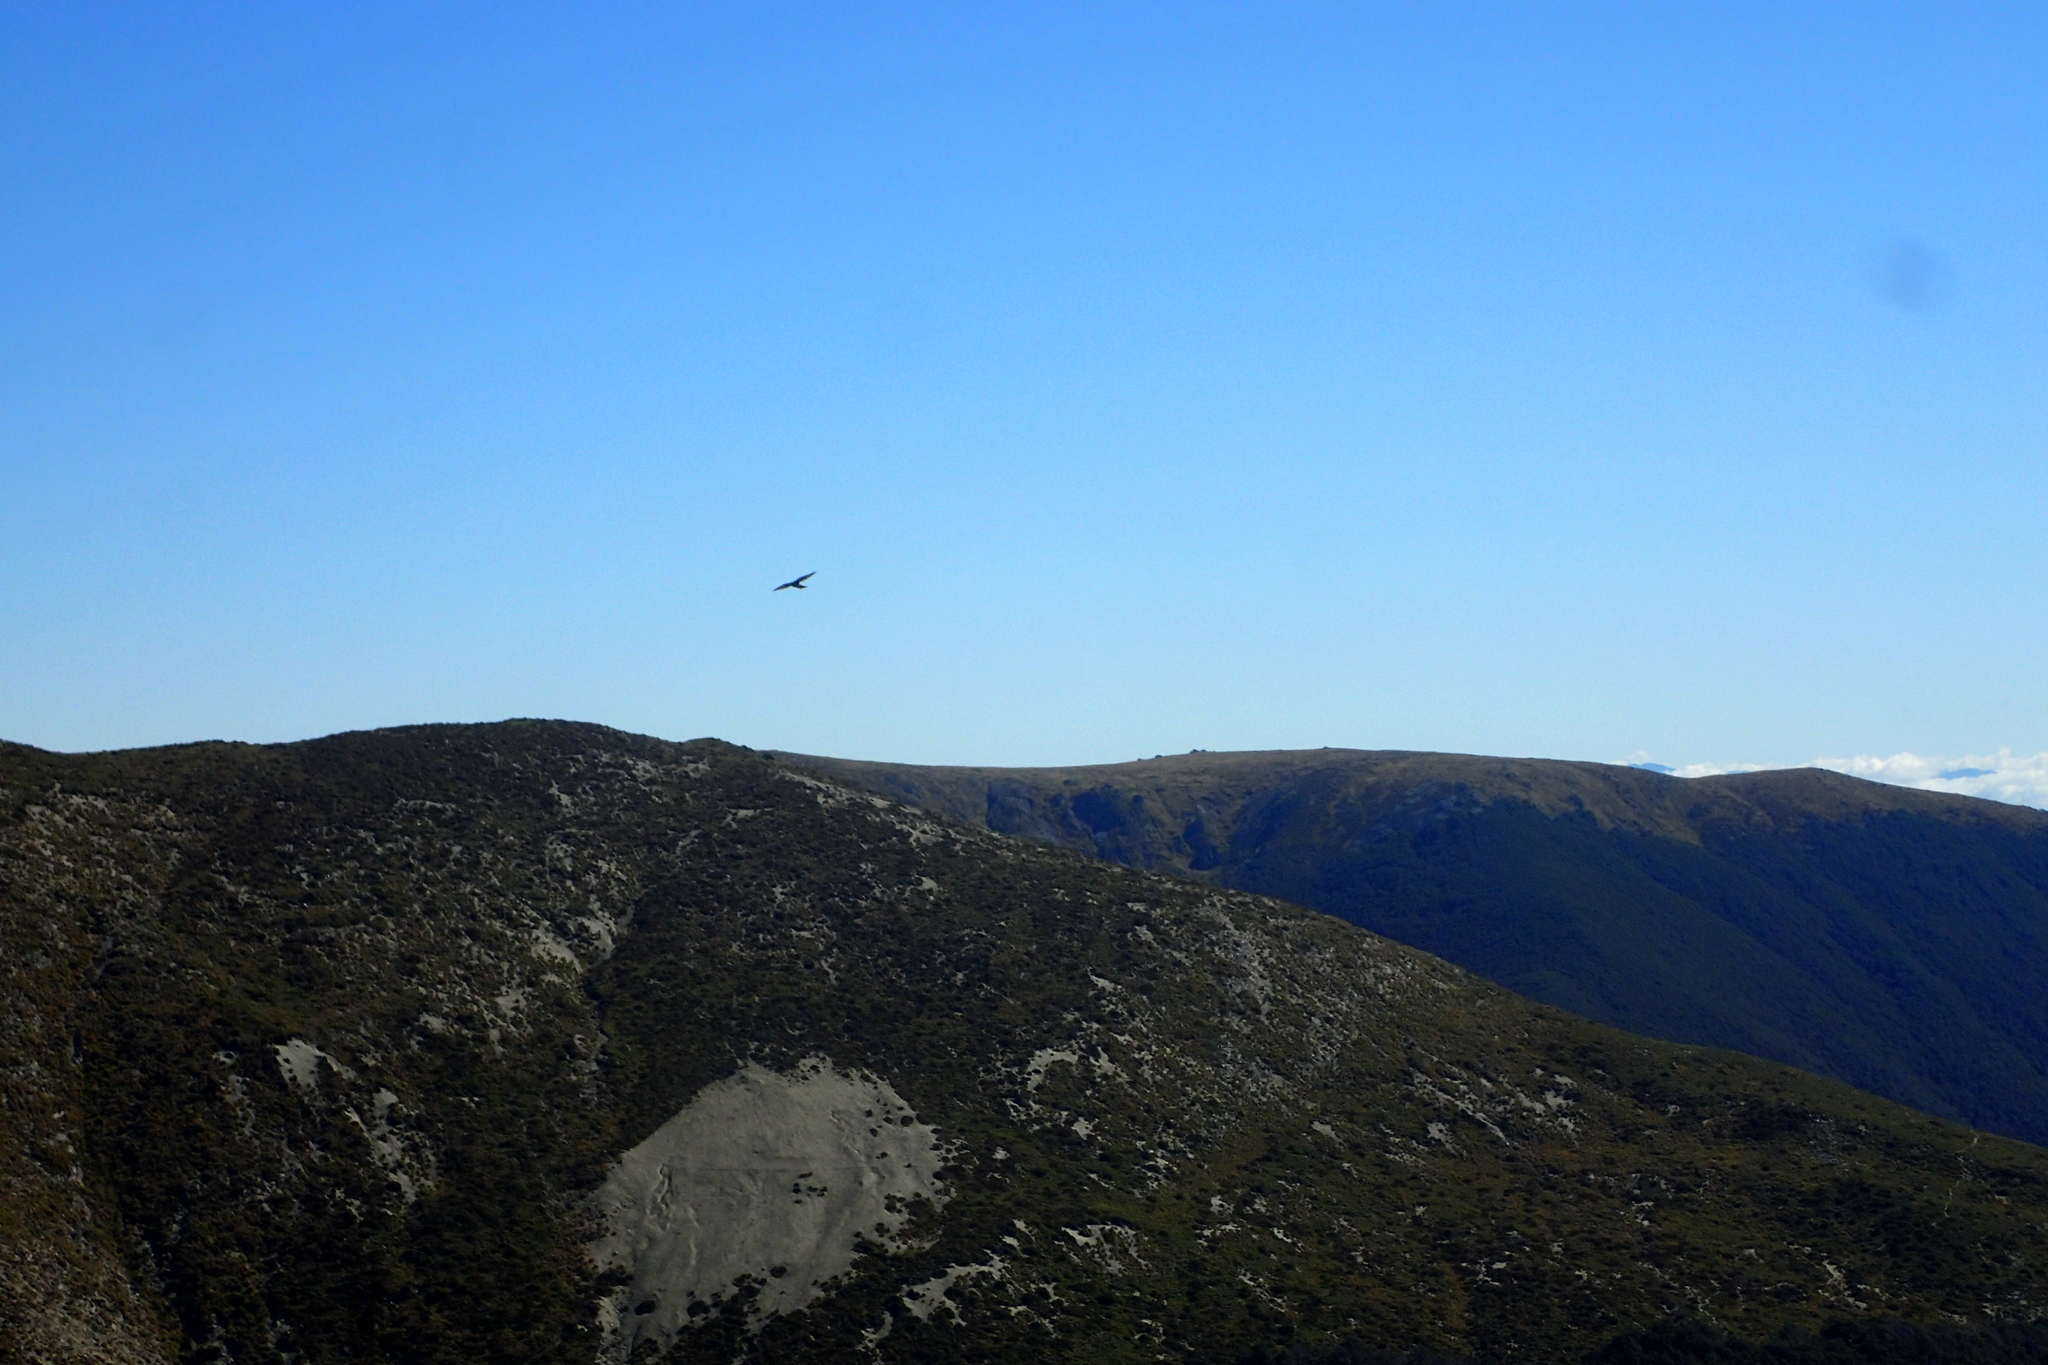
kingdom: Animalia
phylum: Chordata
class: Aves
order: Falconiformes
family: Falconidae
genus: Falco
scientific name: Falco novaeseelandiae
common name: New zealand falcon
